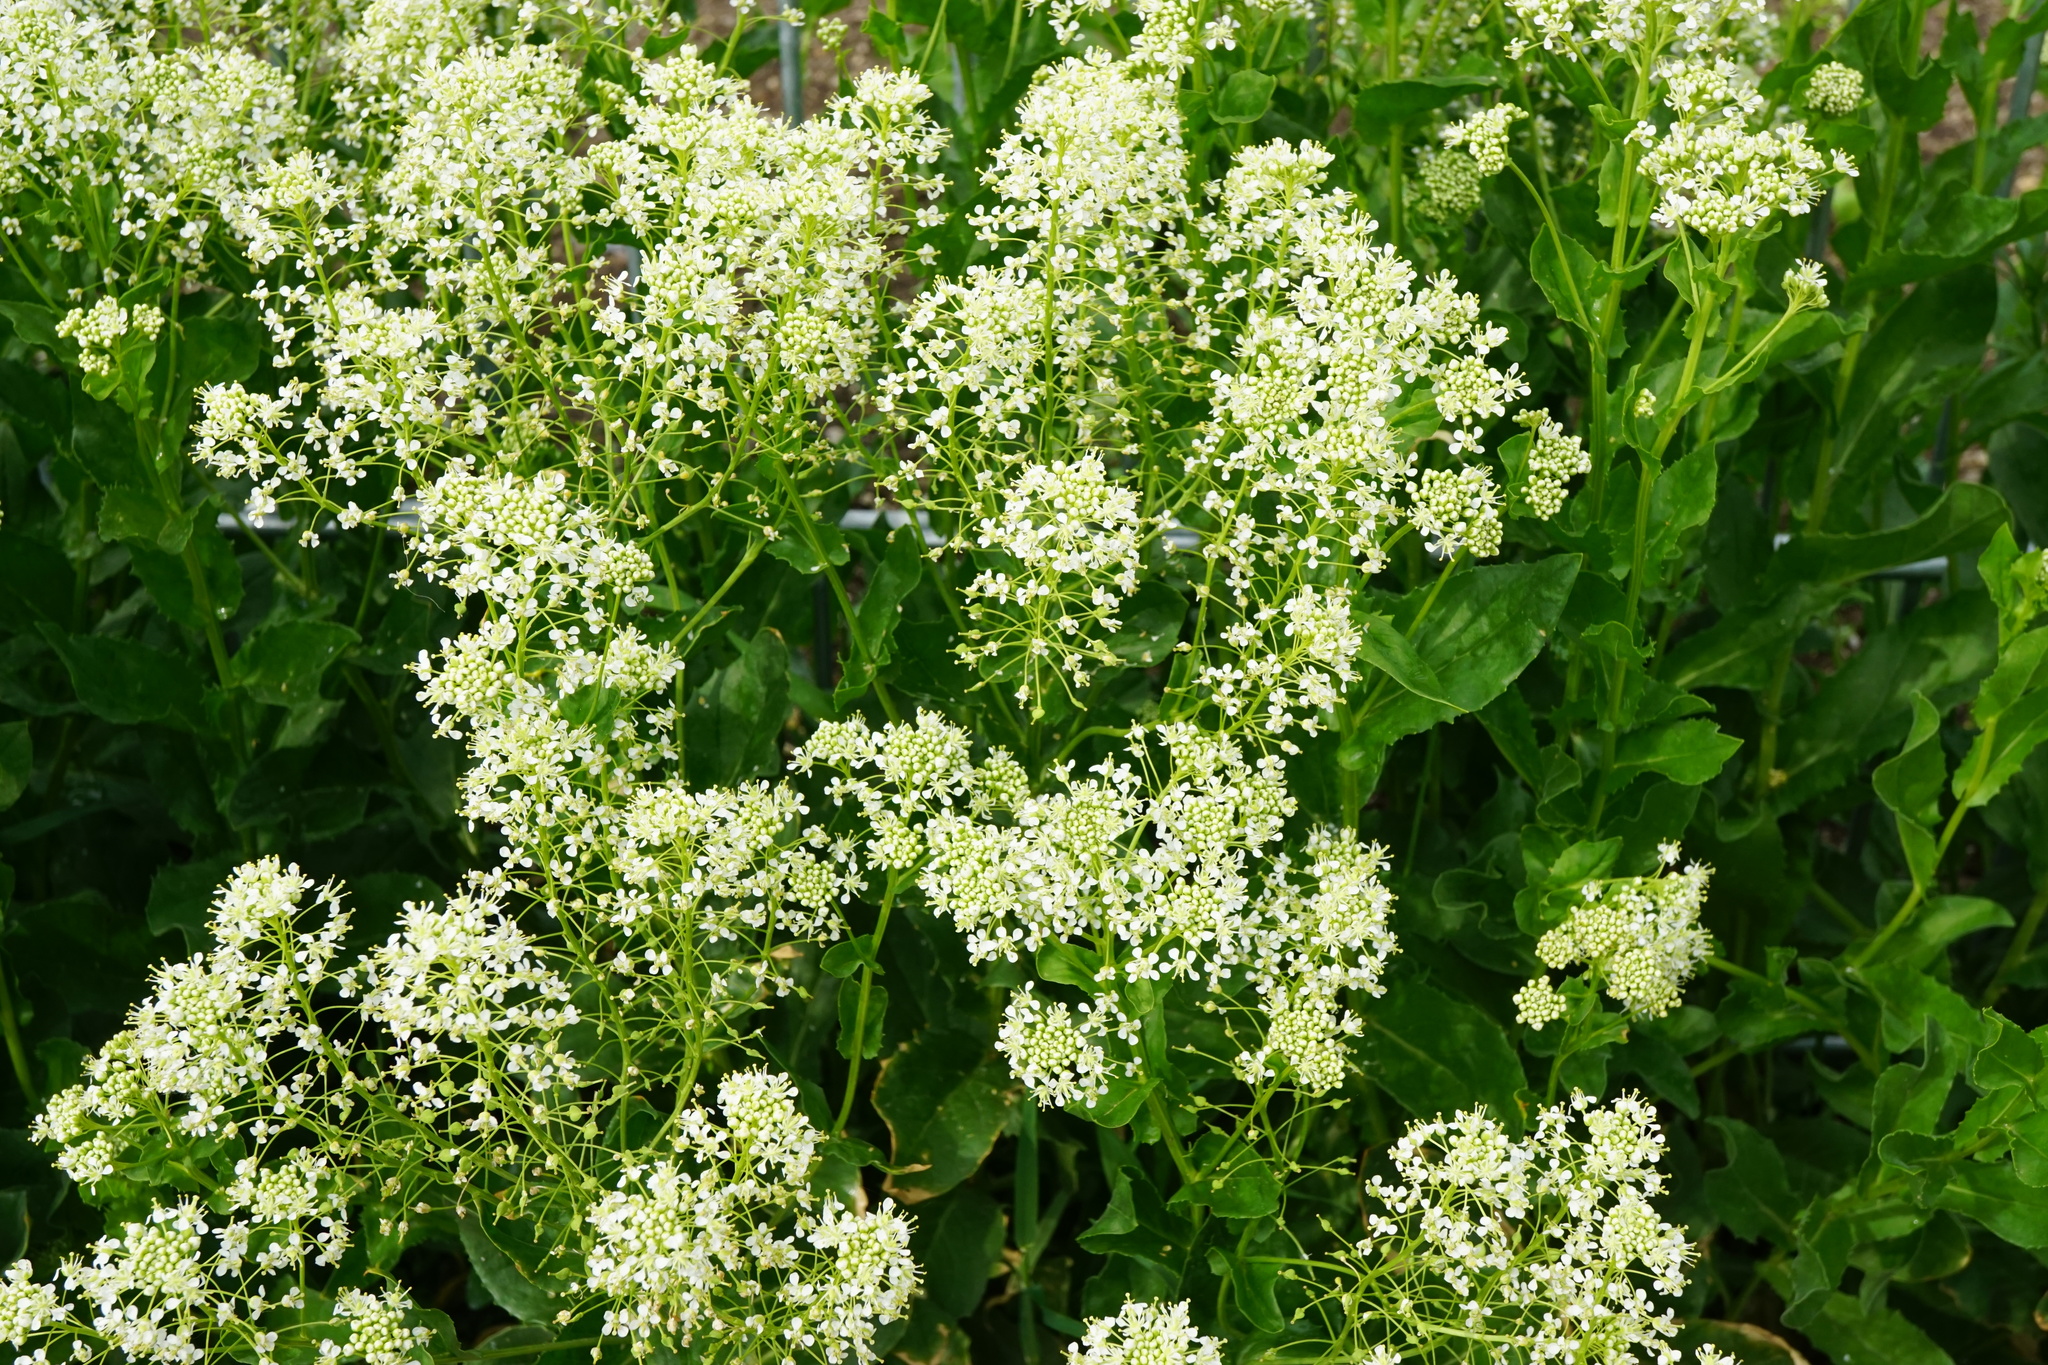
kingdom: Plantae
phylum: Tracheophyta
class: Magnoliopsida
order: Brassicales
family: Brassicaceae
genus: Lepidium
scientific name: Lepidium draba
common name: Hoary cress
